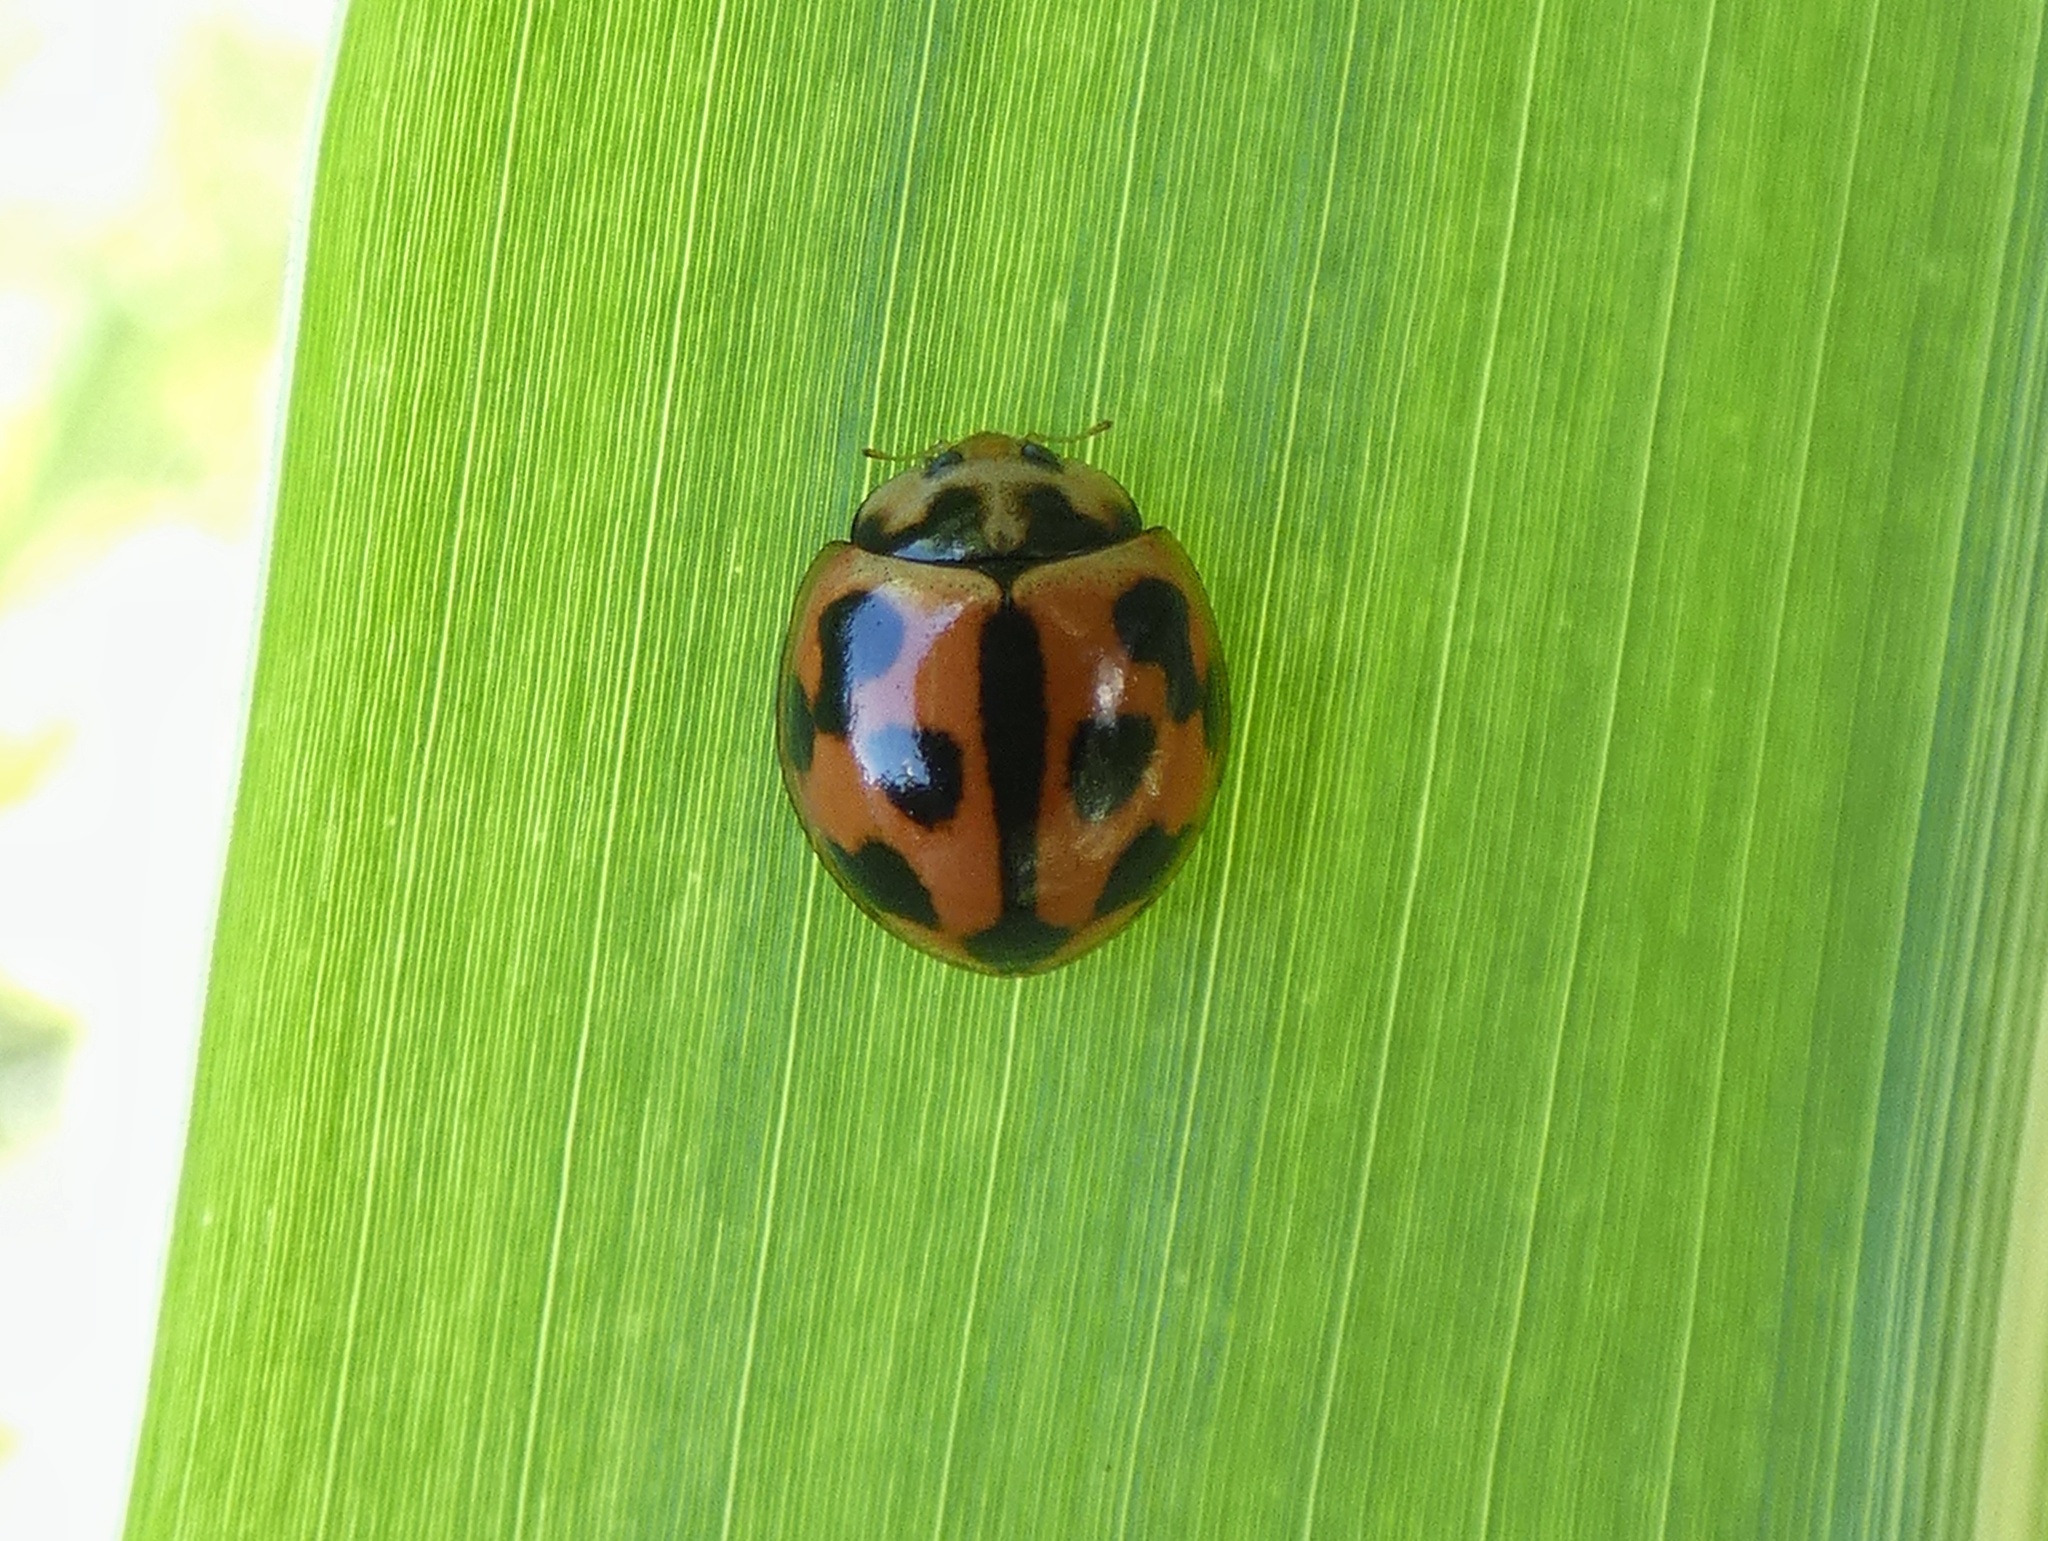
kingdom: Animalia
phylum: Arthropoda
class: Insecta
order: Coleoptera
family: Coccinellidae
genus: Coelophora
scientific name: Coelophora inaequalis
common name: Common australian lady beetle
